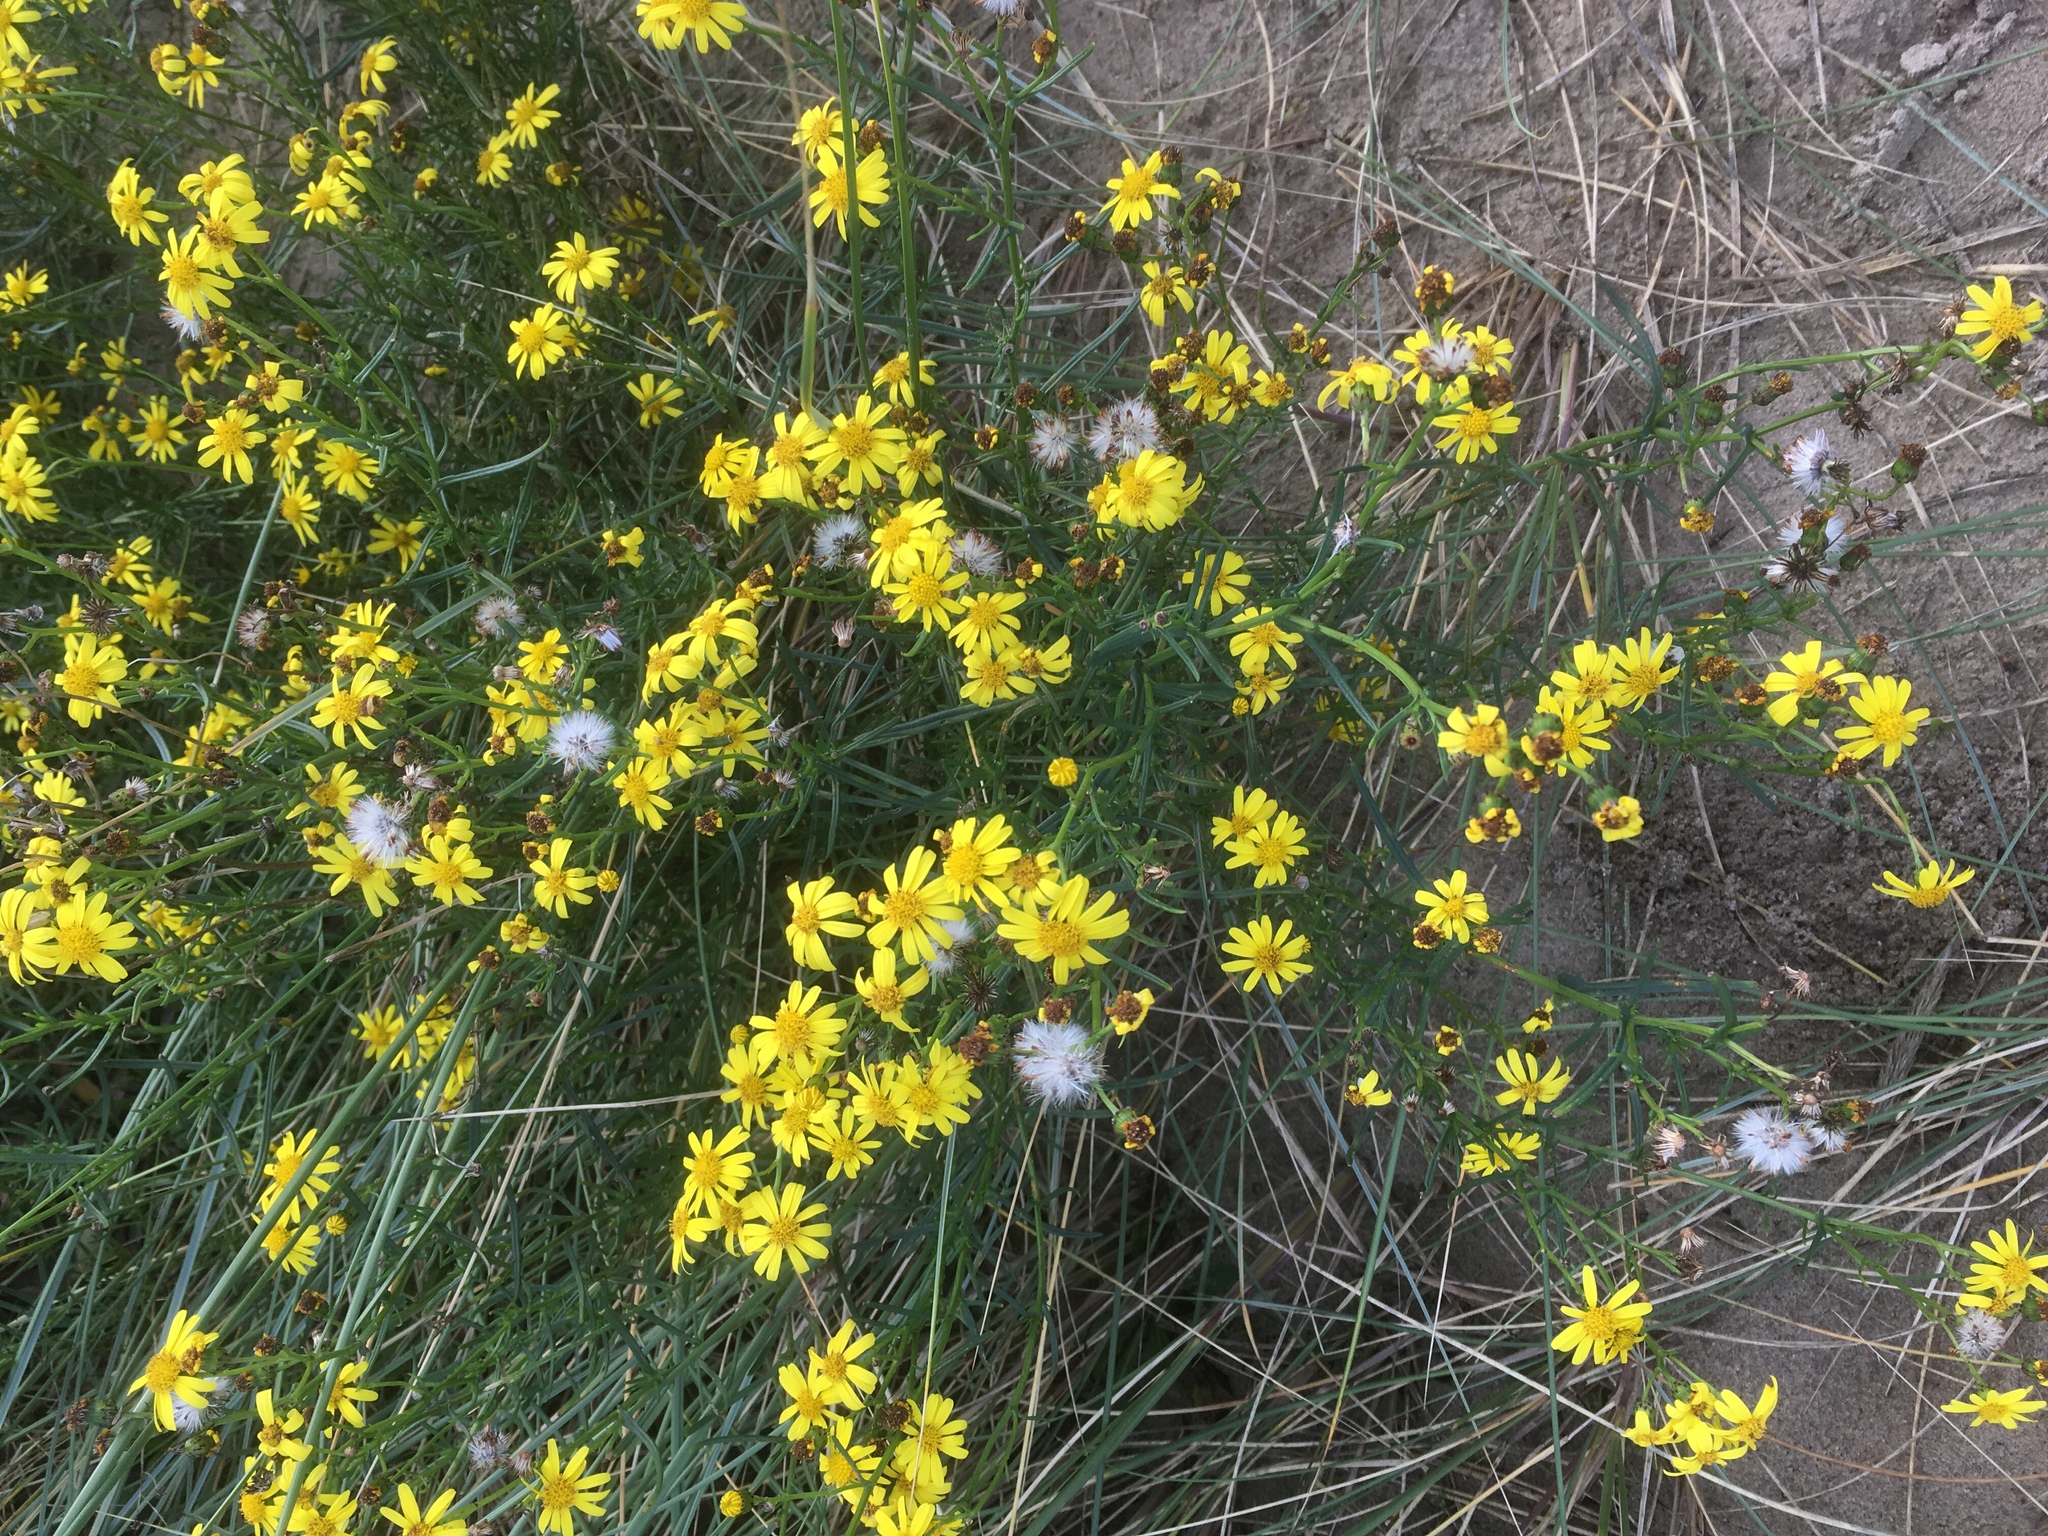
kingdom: Plantae
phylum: Tracheophyta
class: Magnoliopsida
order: Asterales
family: Asteraceae
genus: Senecio
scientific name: Senecio inaequidens
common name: Narrow-leaved ragwort
